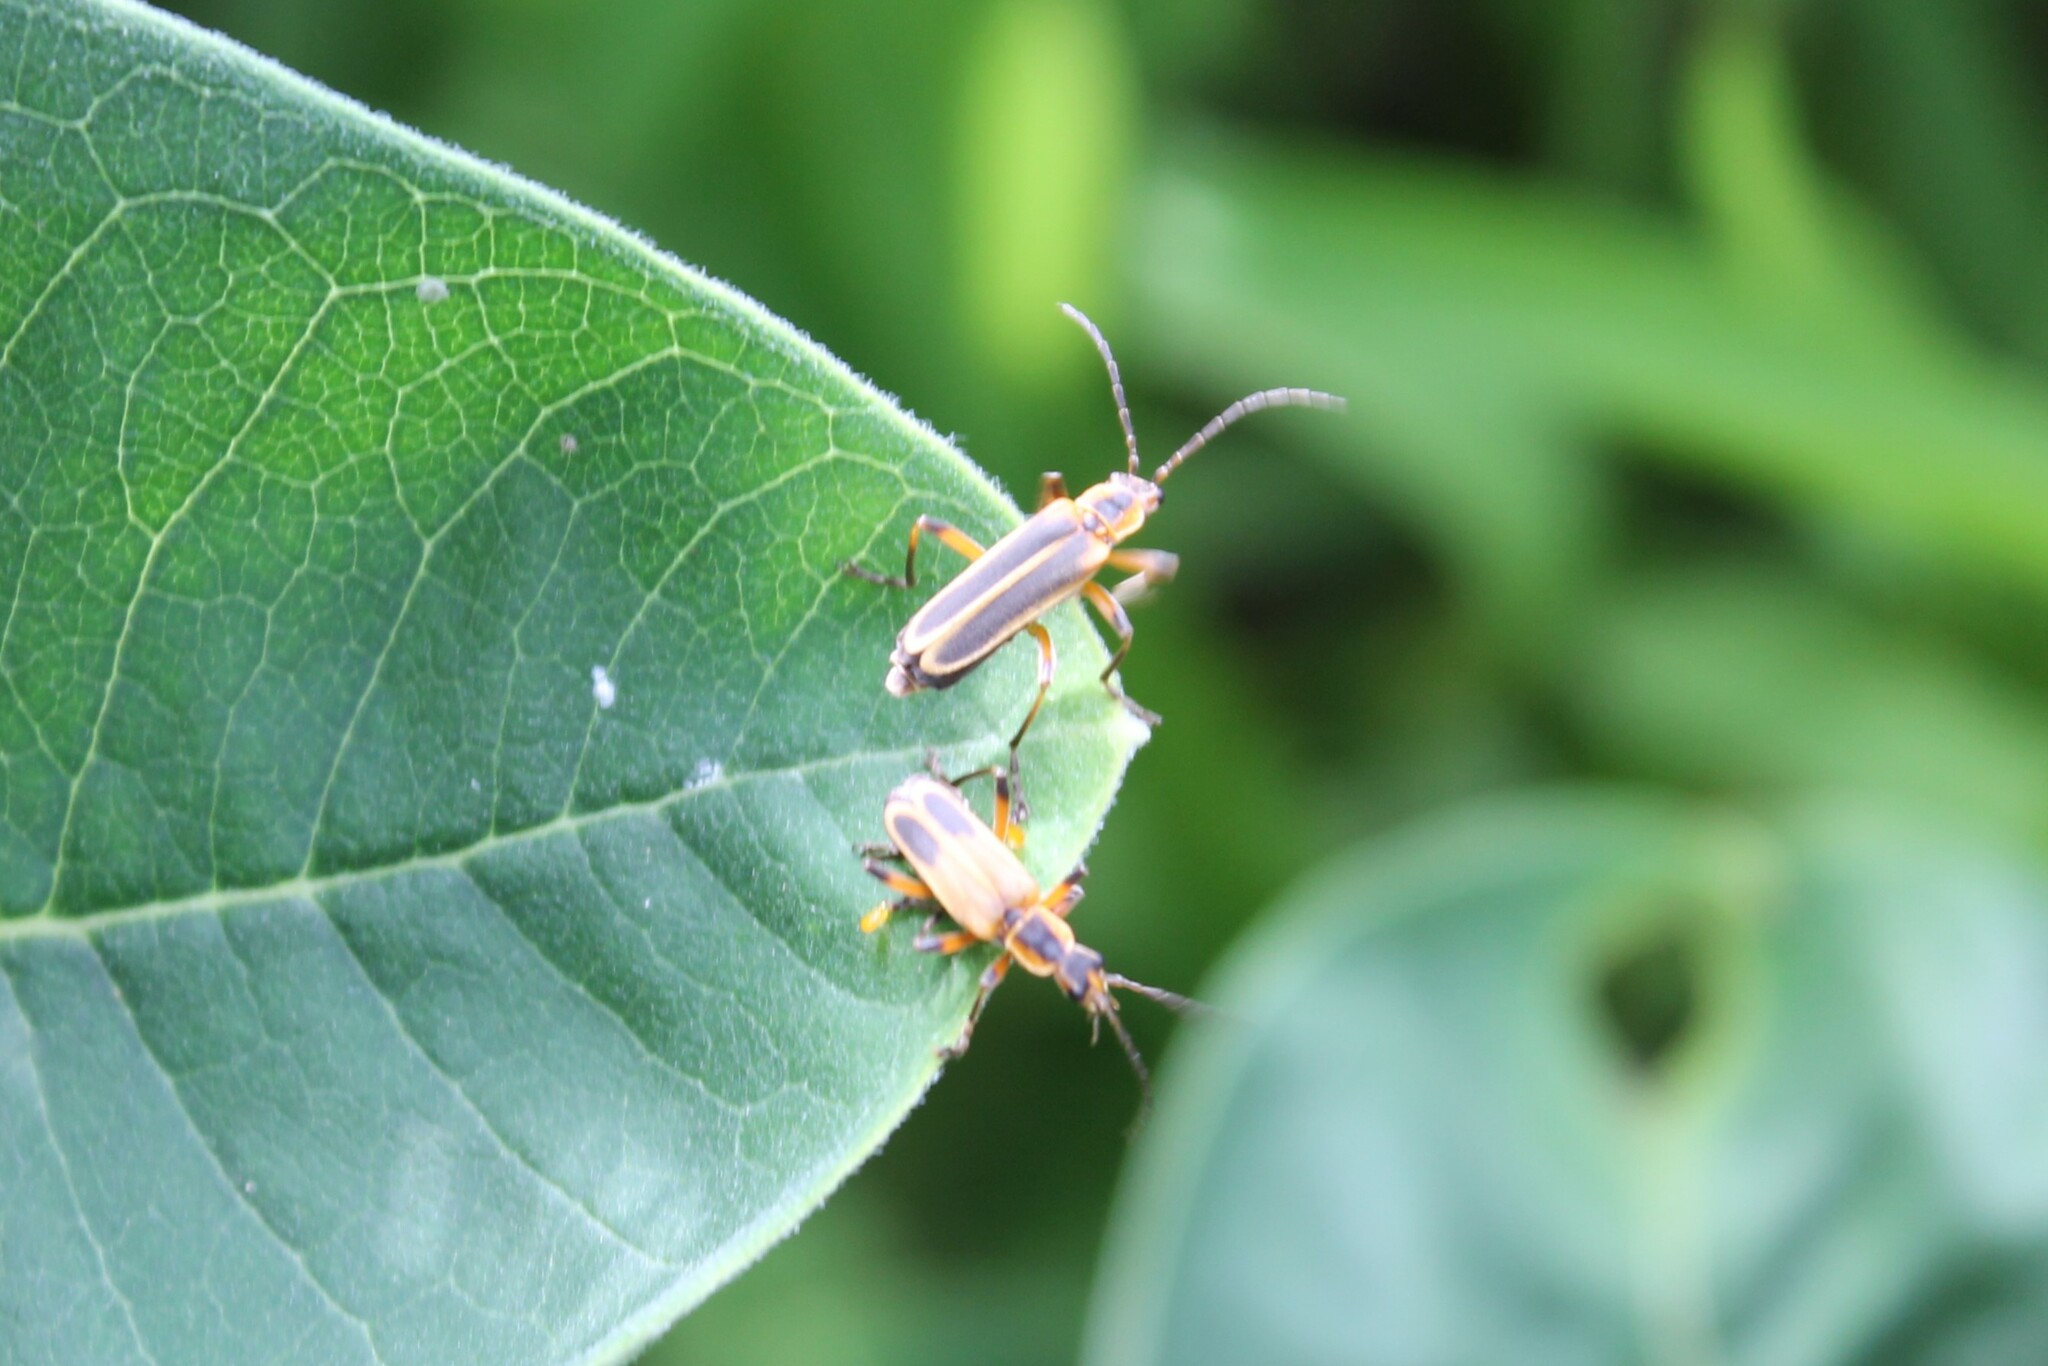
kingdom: Animalia
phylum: Arthropoda
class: Insecta
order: Coleoptera
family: Cantharidae
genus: Chauliognathus
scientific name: Chauliognathus marginatus
